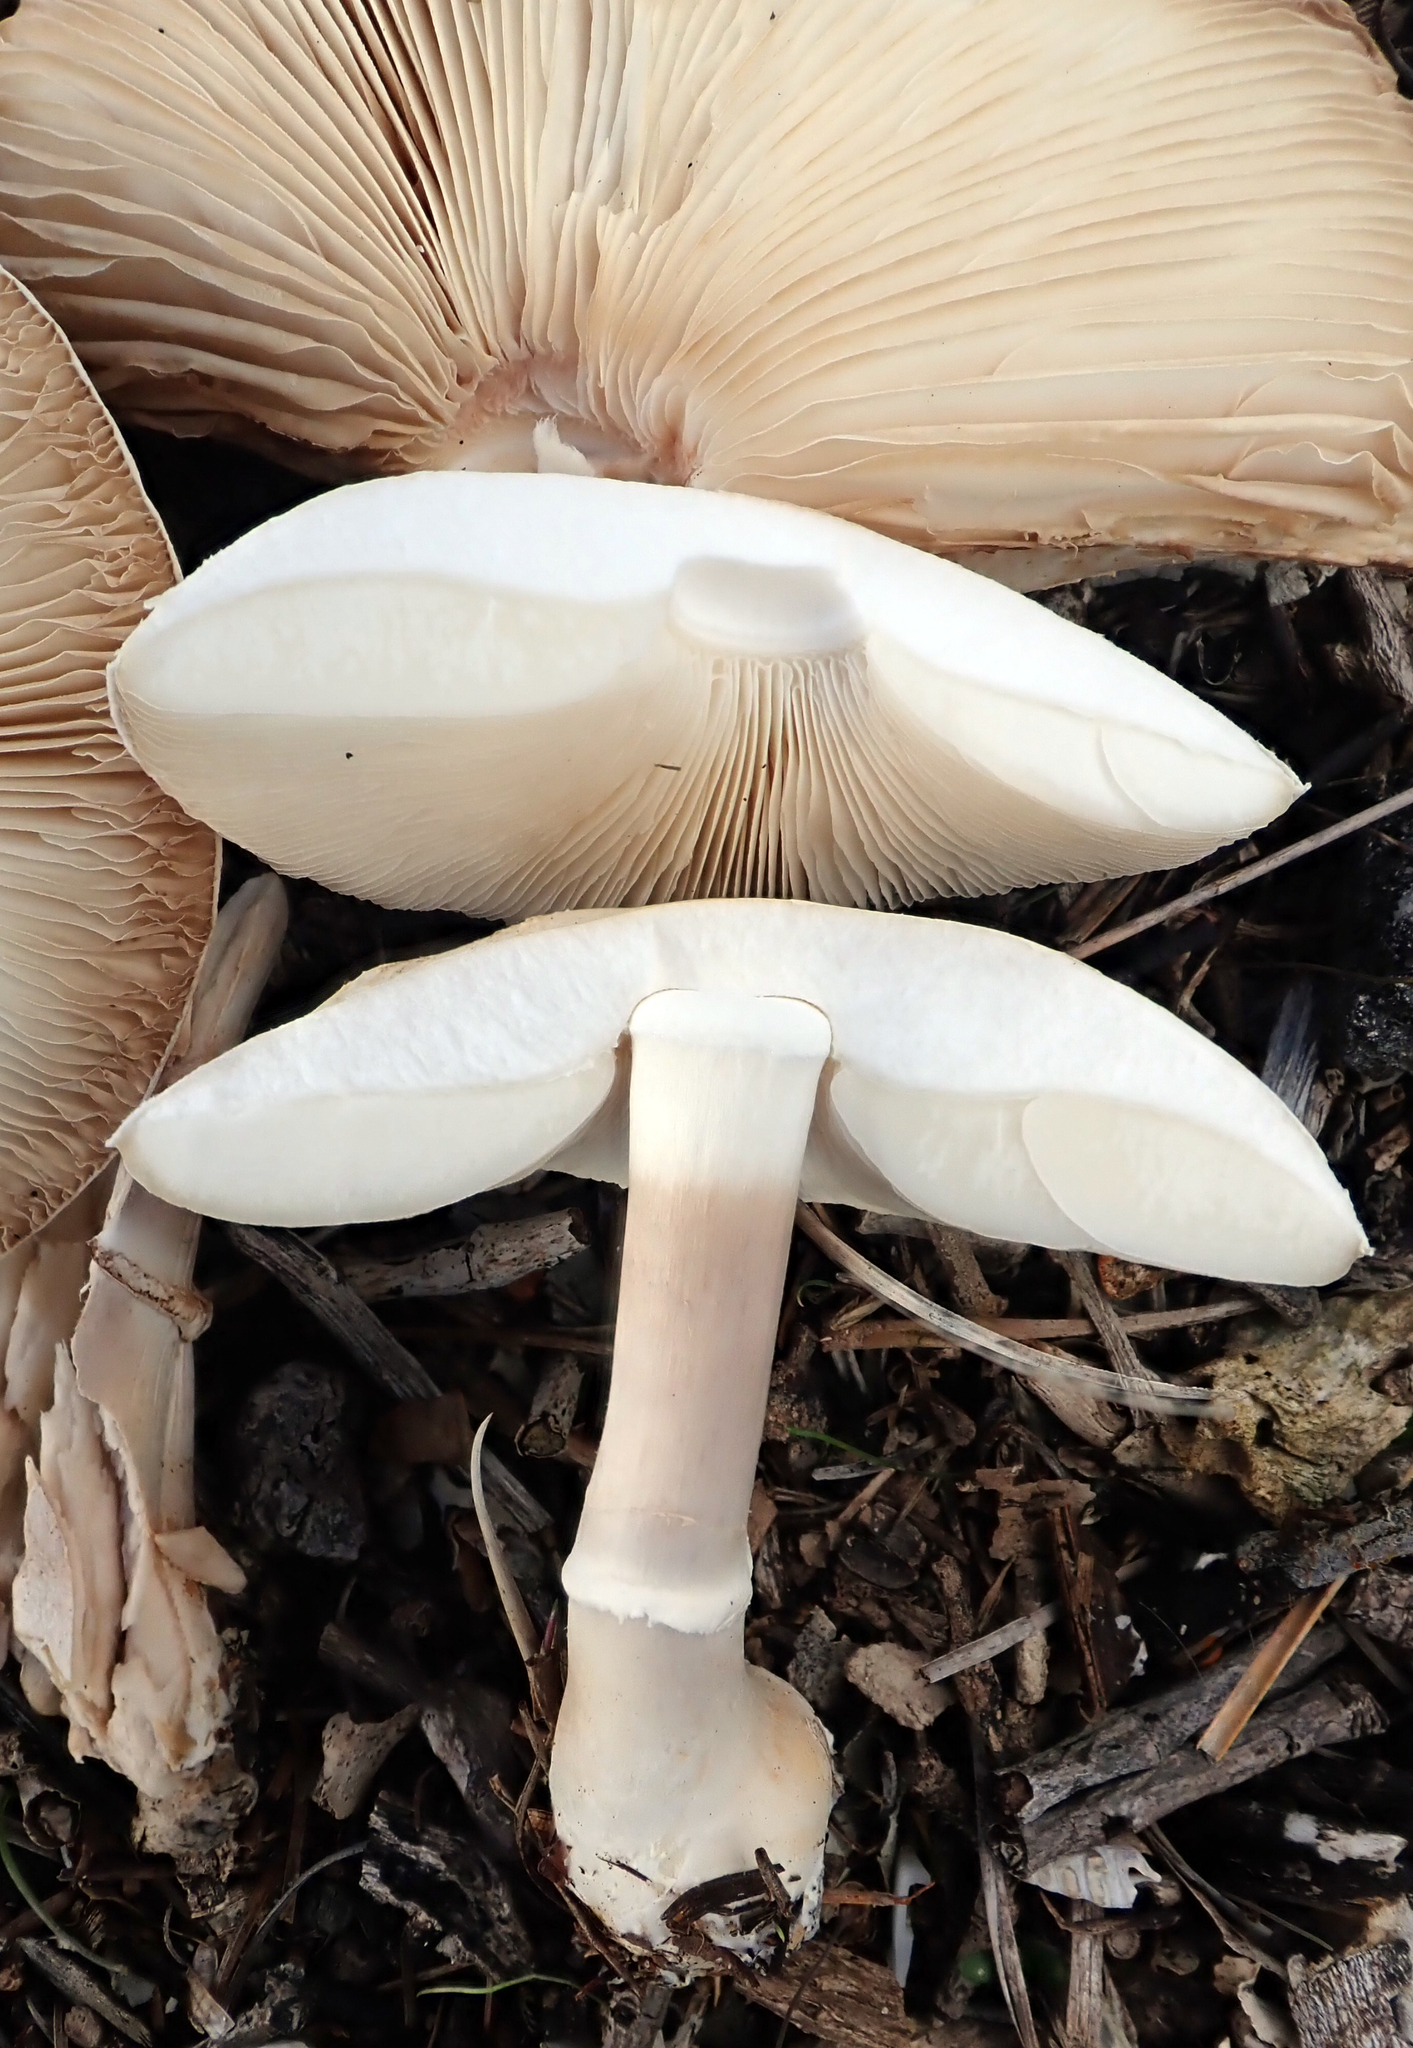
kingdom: Fungi
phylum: Basidiomycota
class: Agaricomycetes
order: Agaricales
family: Agaricaceae
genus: Leucoagaricus
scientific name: Leucoagaricus leucothites
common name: White dapperling
